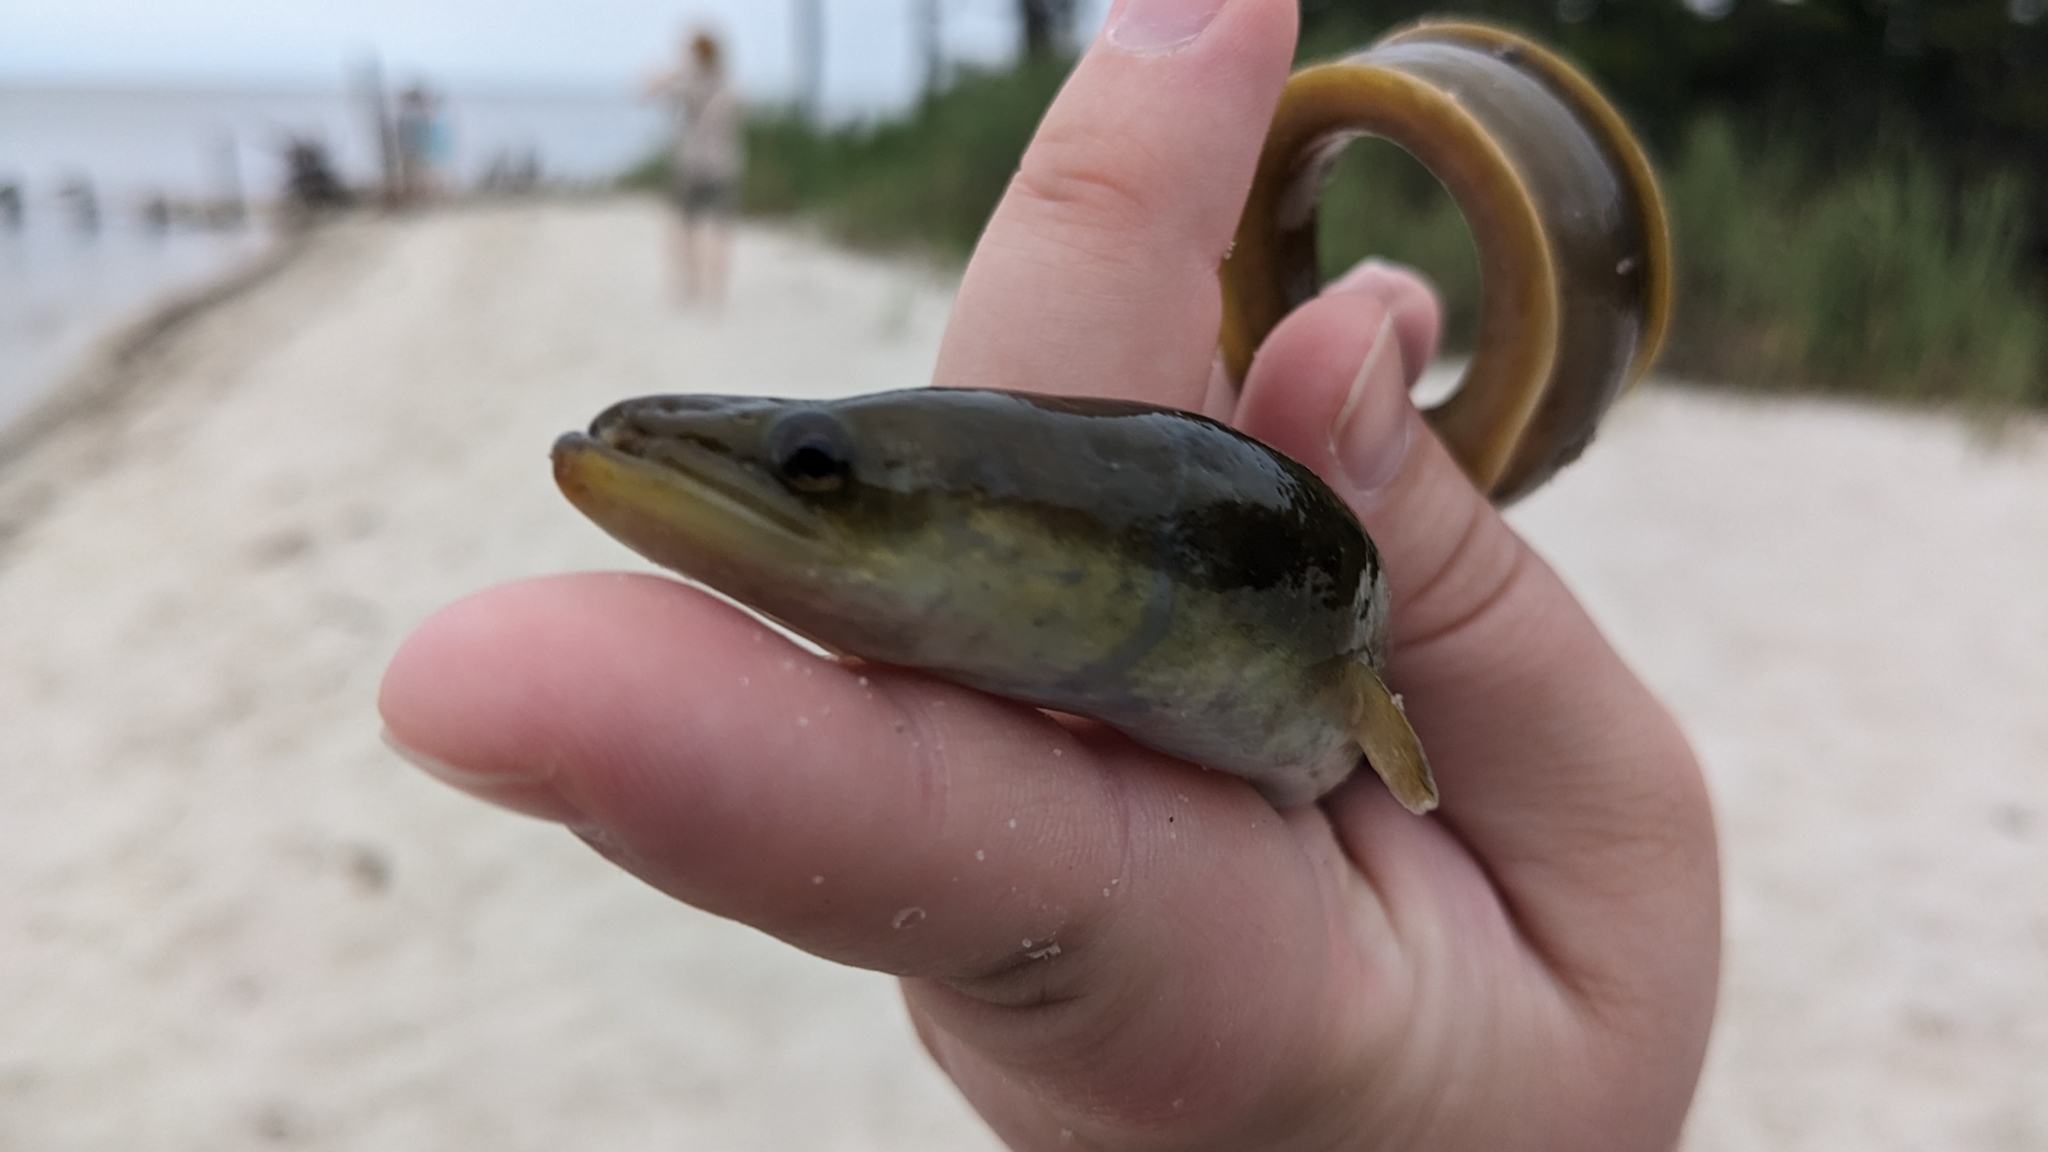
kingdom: Animalia
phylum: Chordata
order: Anguilliformes
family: Anguillidae
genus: Anguilla
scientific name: Anguilla rostrata
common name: American eel
